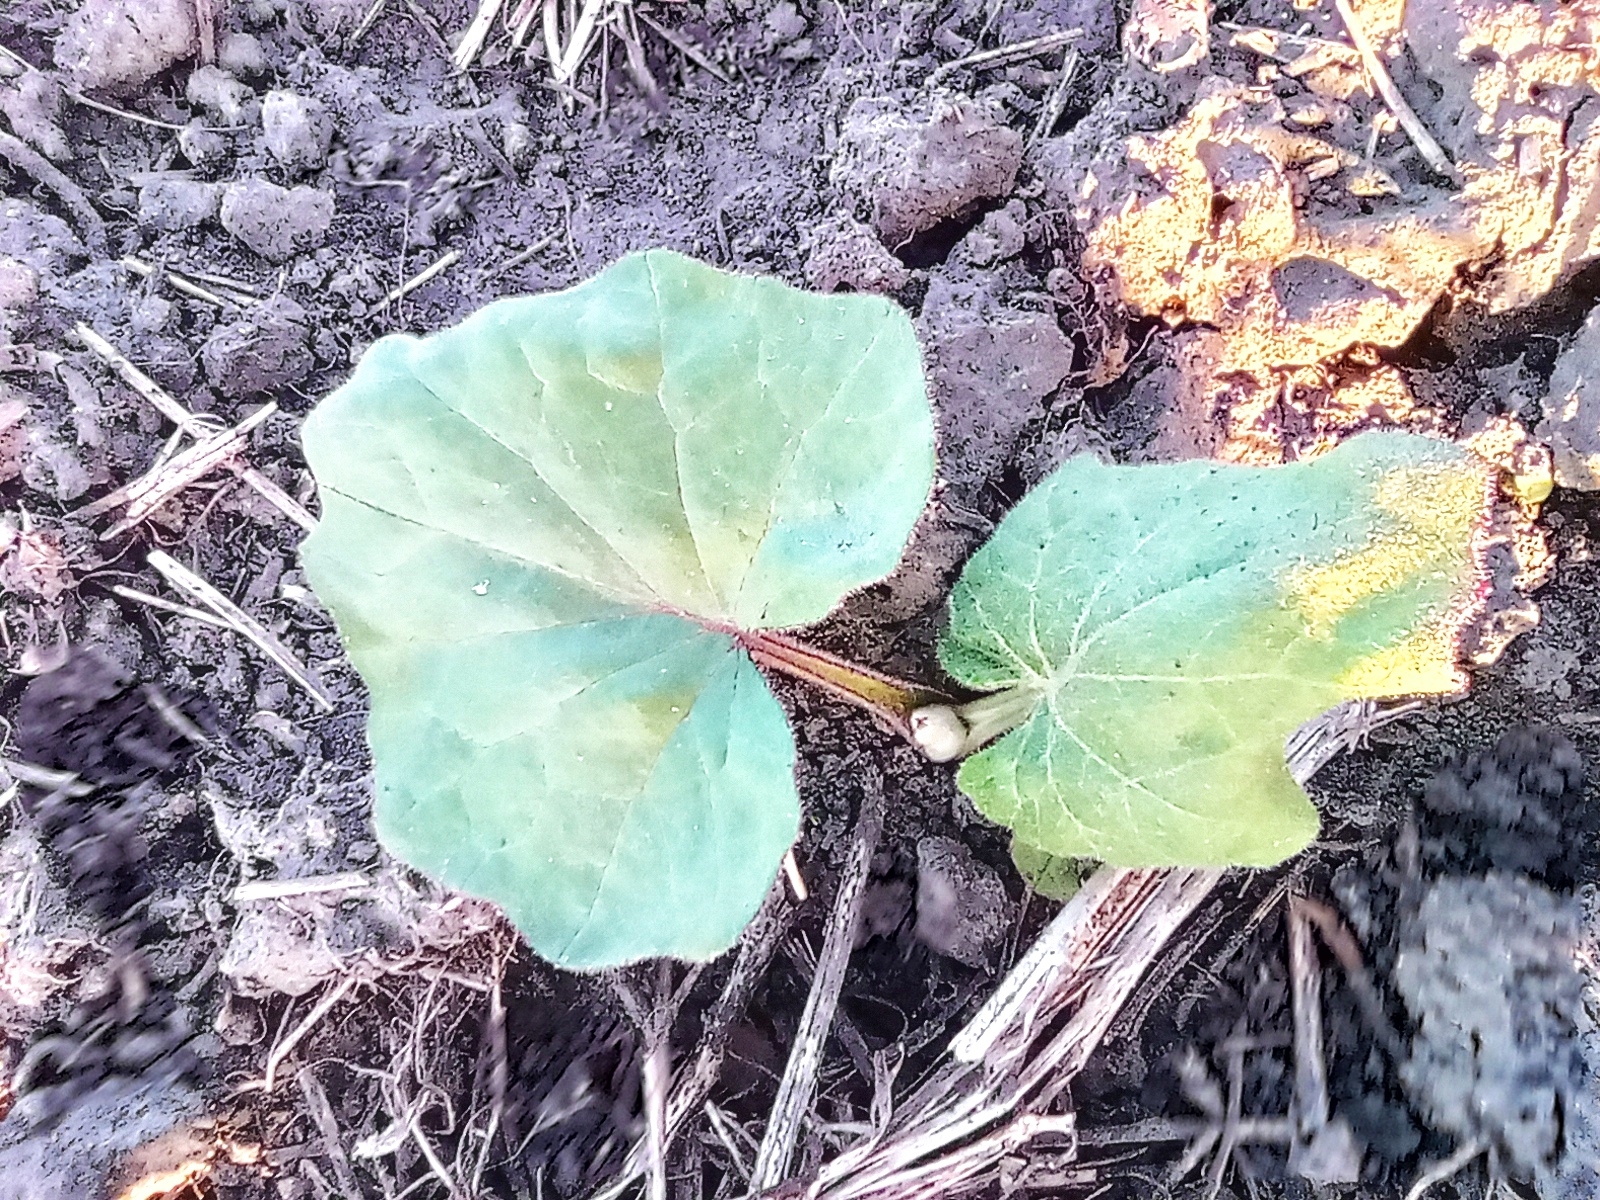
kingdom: Plantae
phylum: Tracheophyta
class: Magnoliopsida
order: Asterales
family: Asteraceae
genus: Tussilago
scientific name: Tussilago farfara
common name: Coltsfoot
